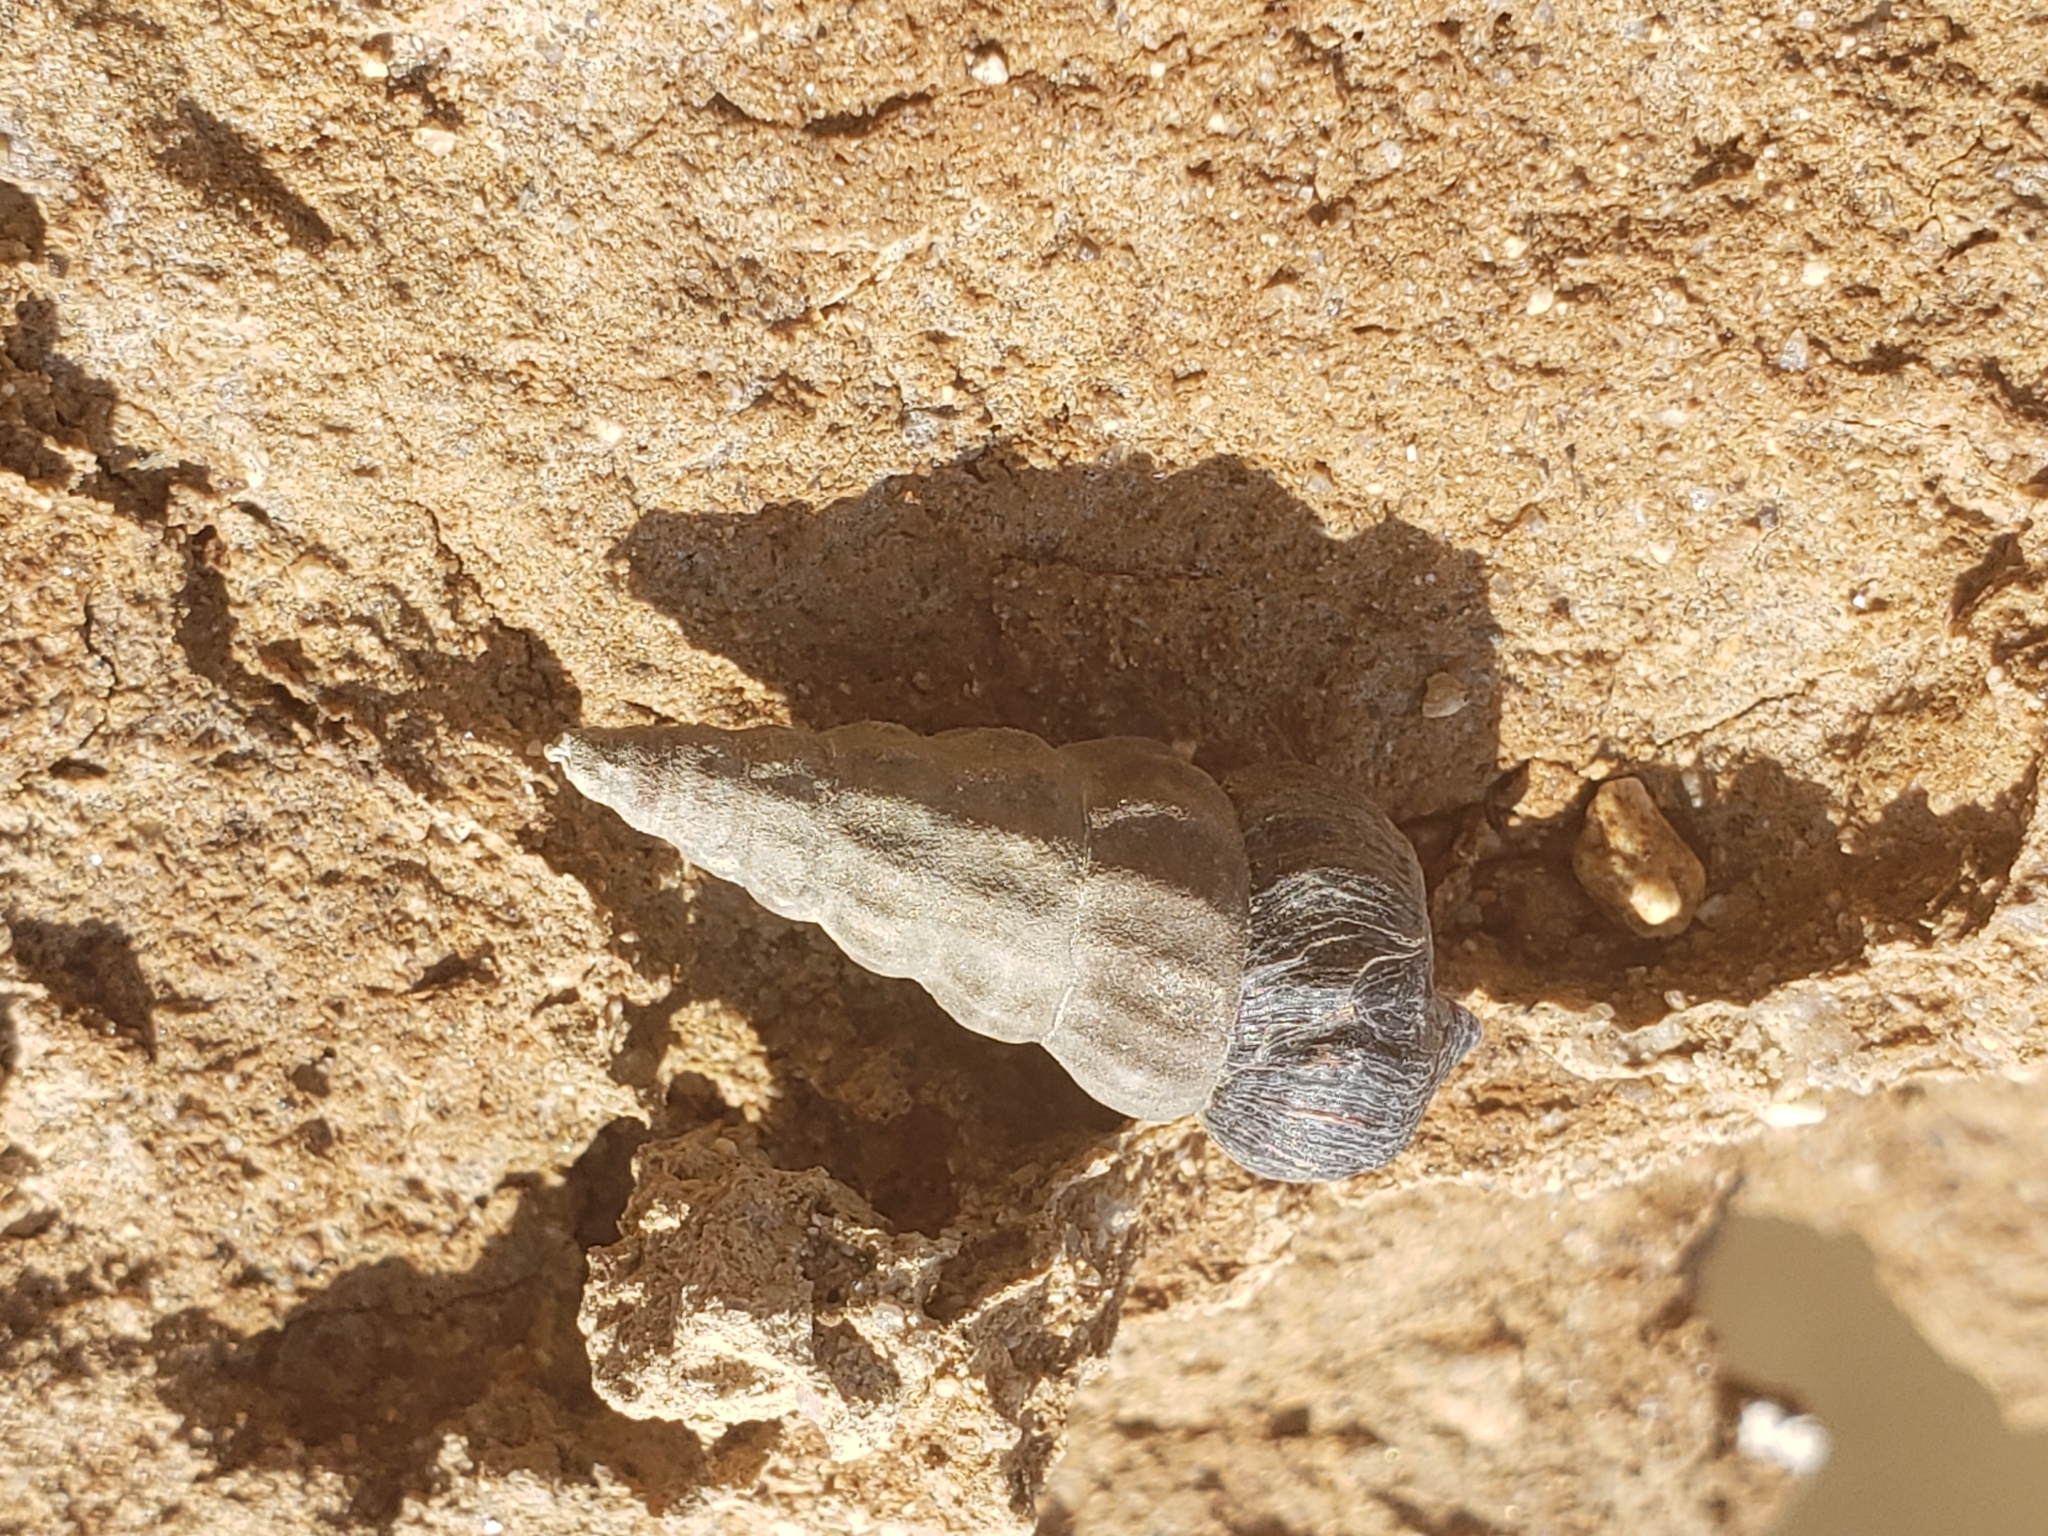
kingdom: Animalia
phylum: Mollusca
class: Gastropoda
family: Potamididae
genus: Cerithideopsis
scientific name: Cerithideopsis californica
